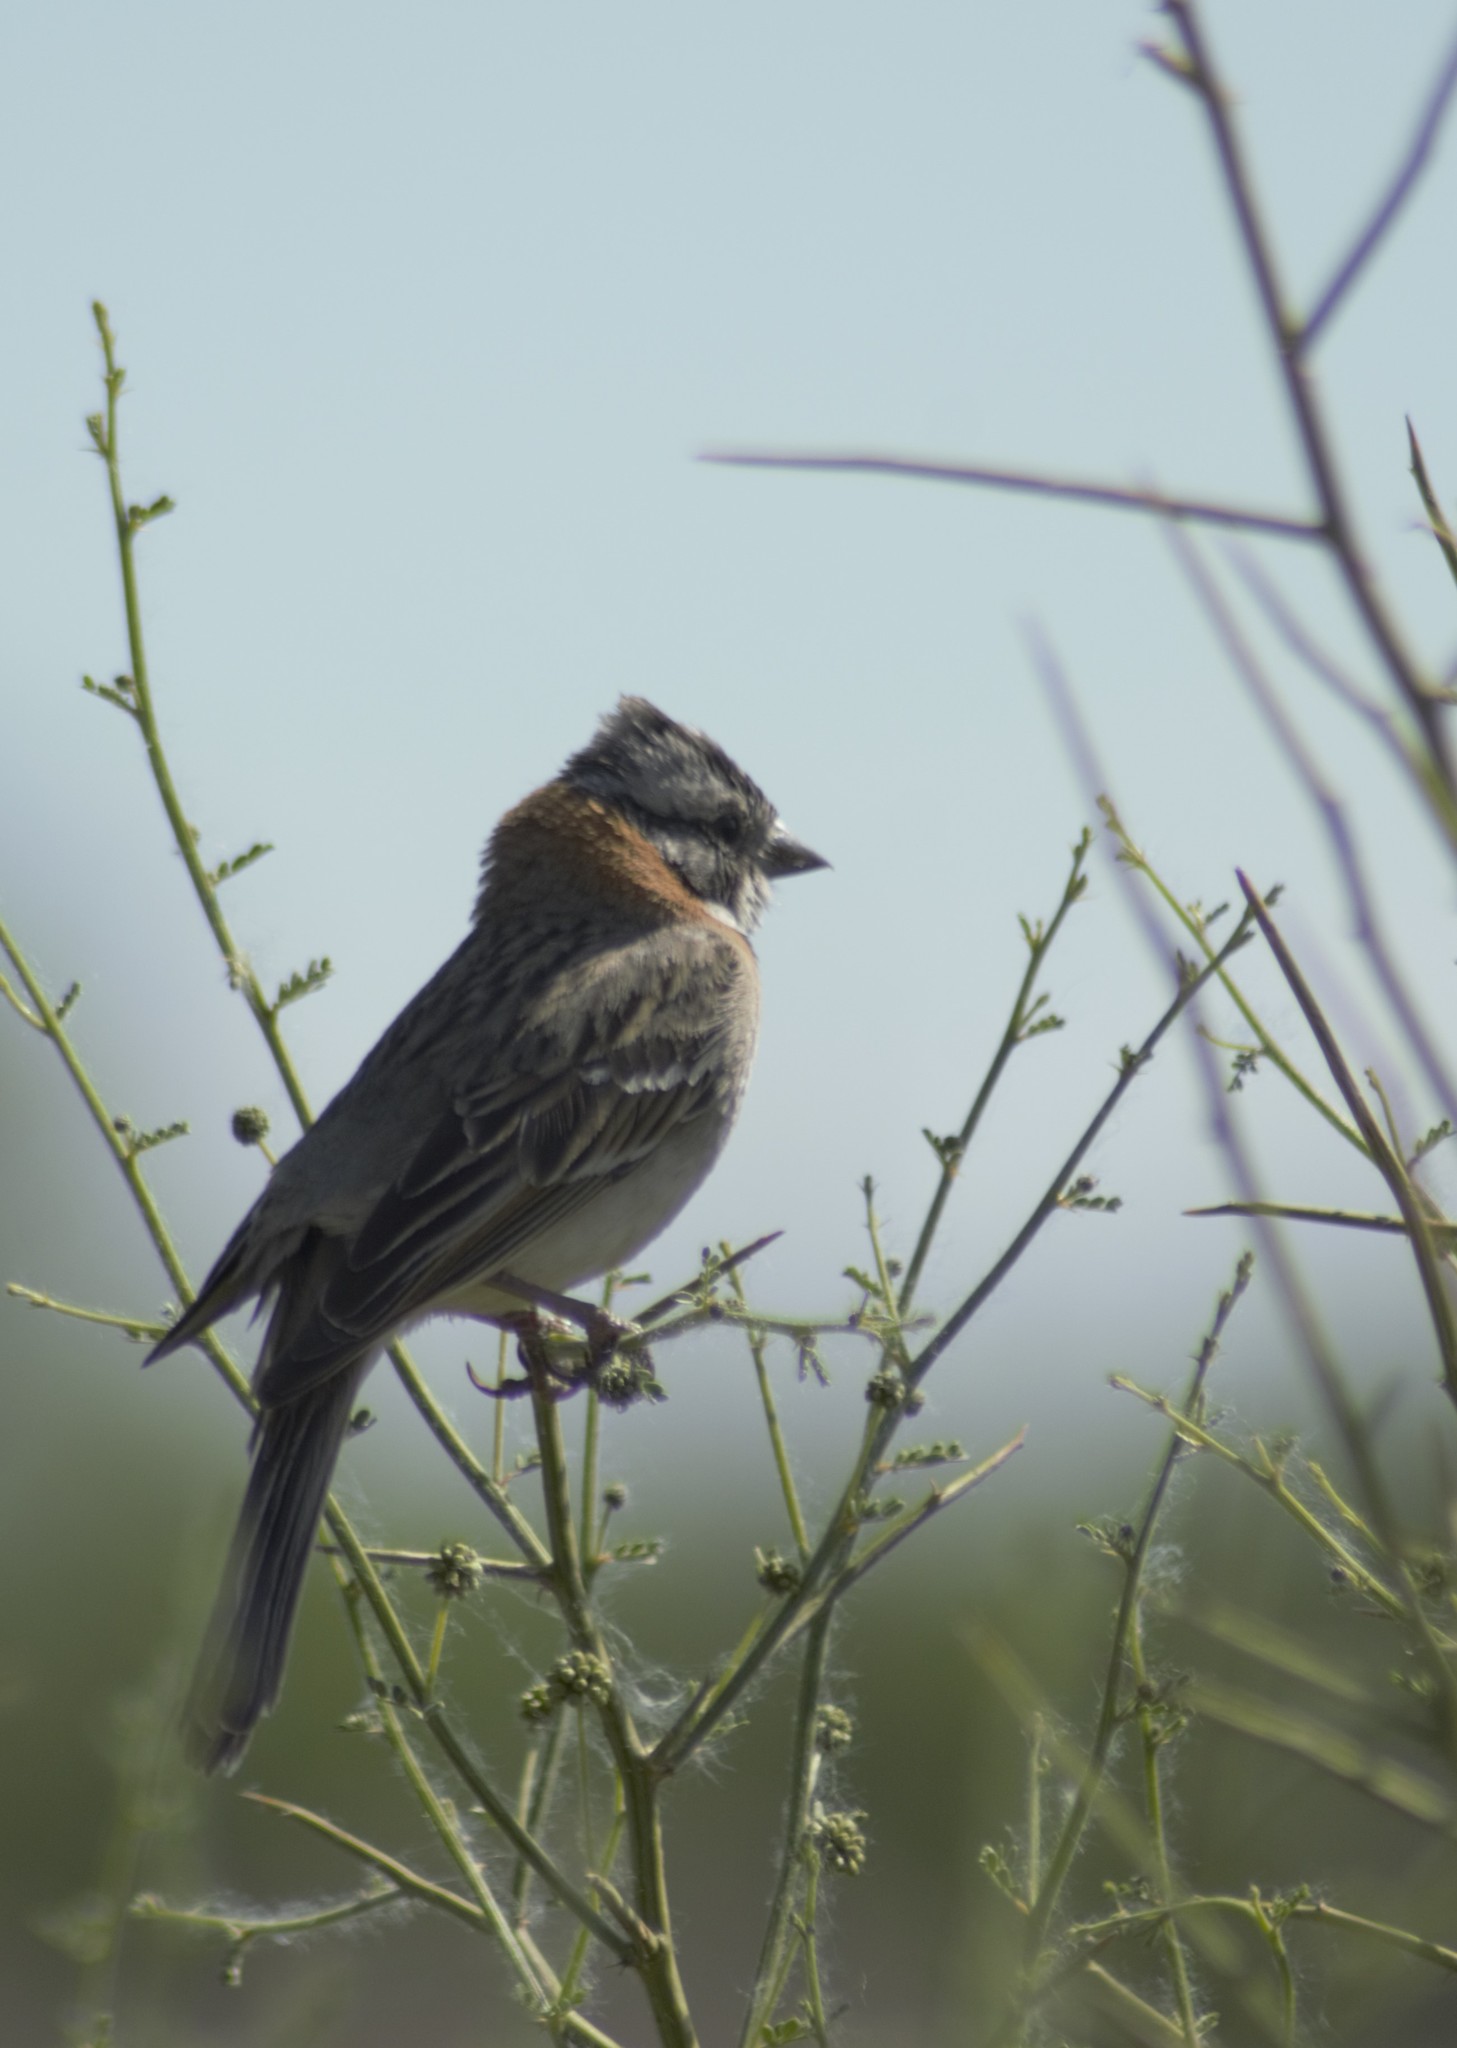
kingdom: Animalia
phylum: Chordata
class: Aves
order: Passeriformes
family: Passerellidae
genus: Zonotrichia
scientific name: Zonotrichia capensis
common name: Rufous-collared sparrow
